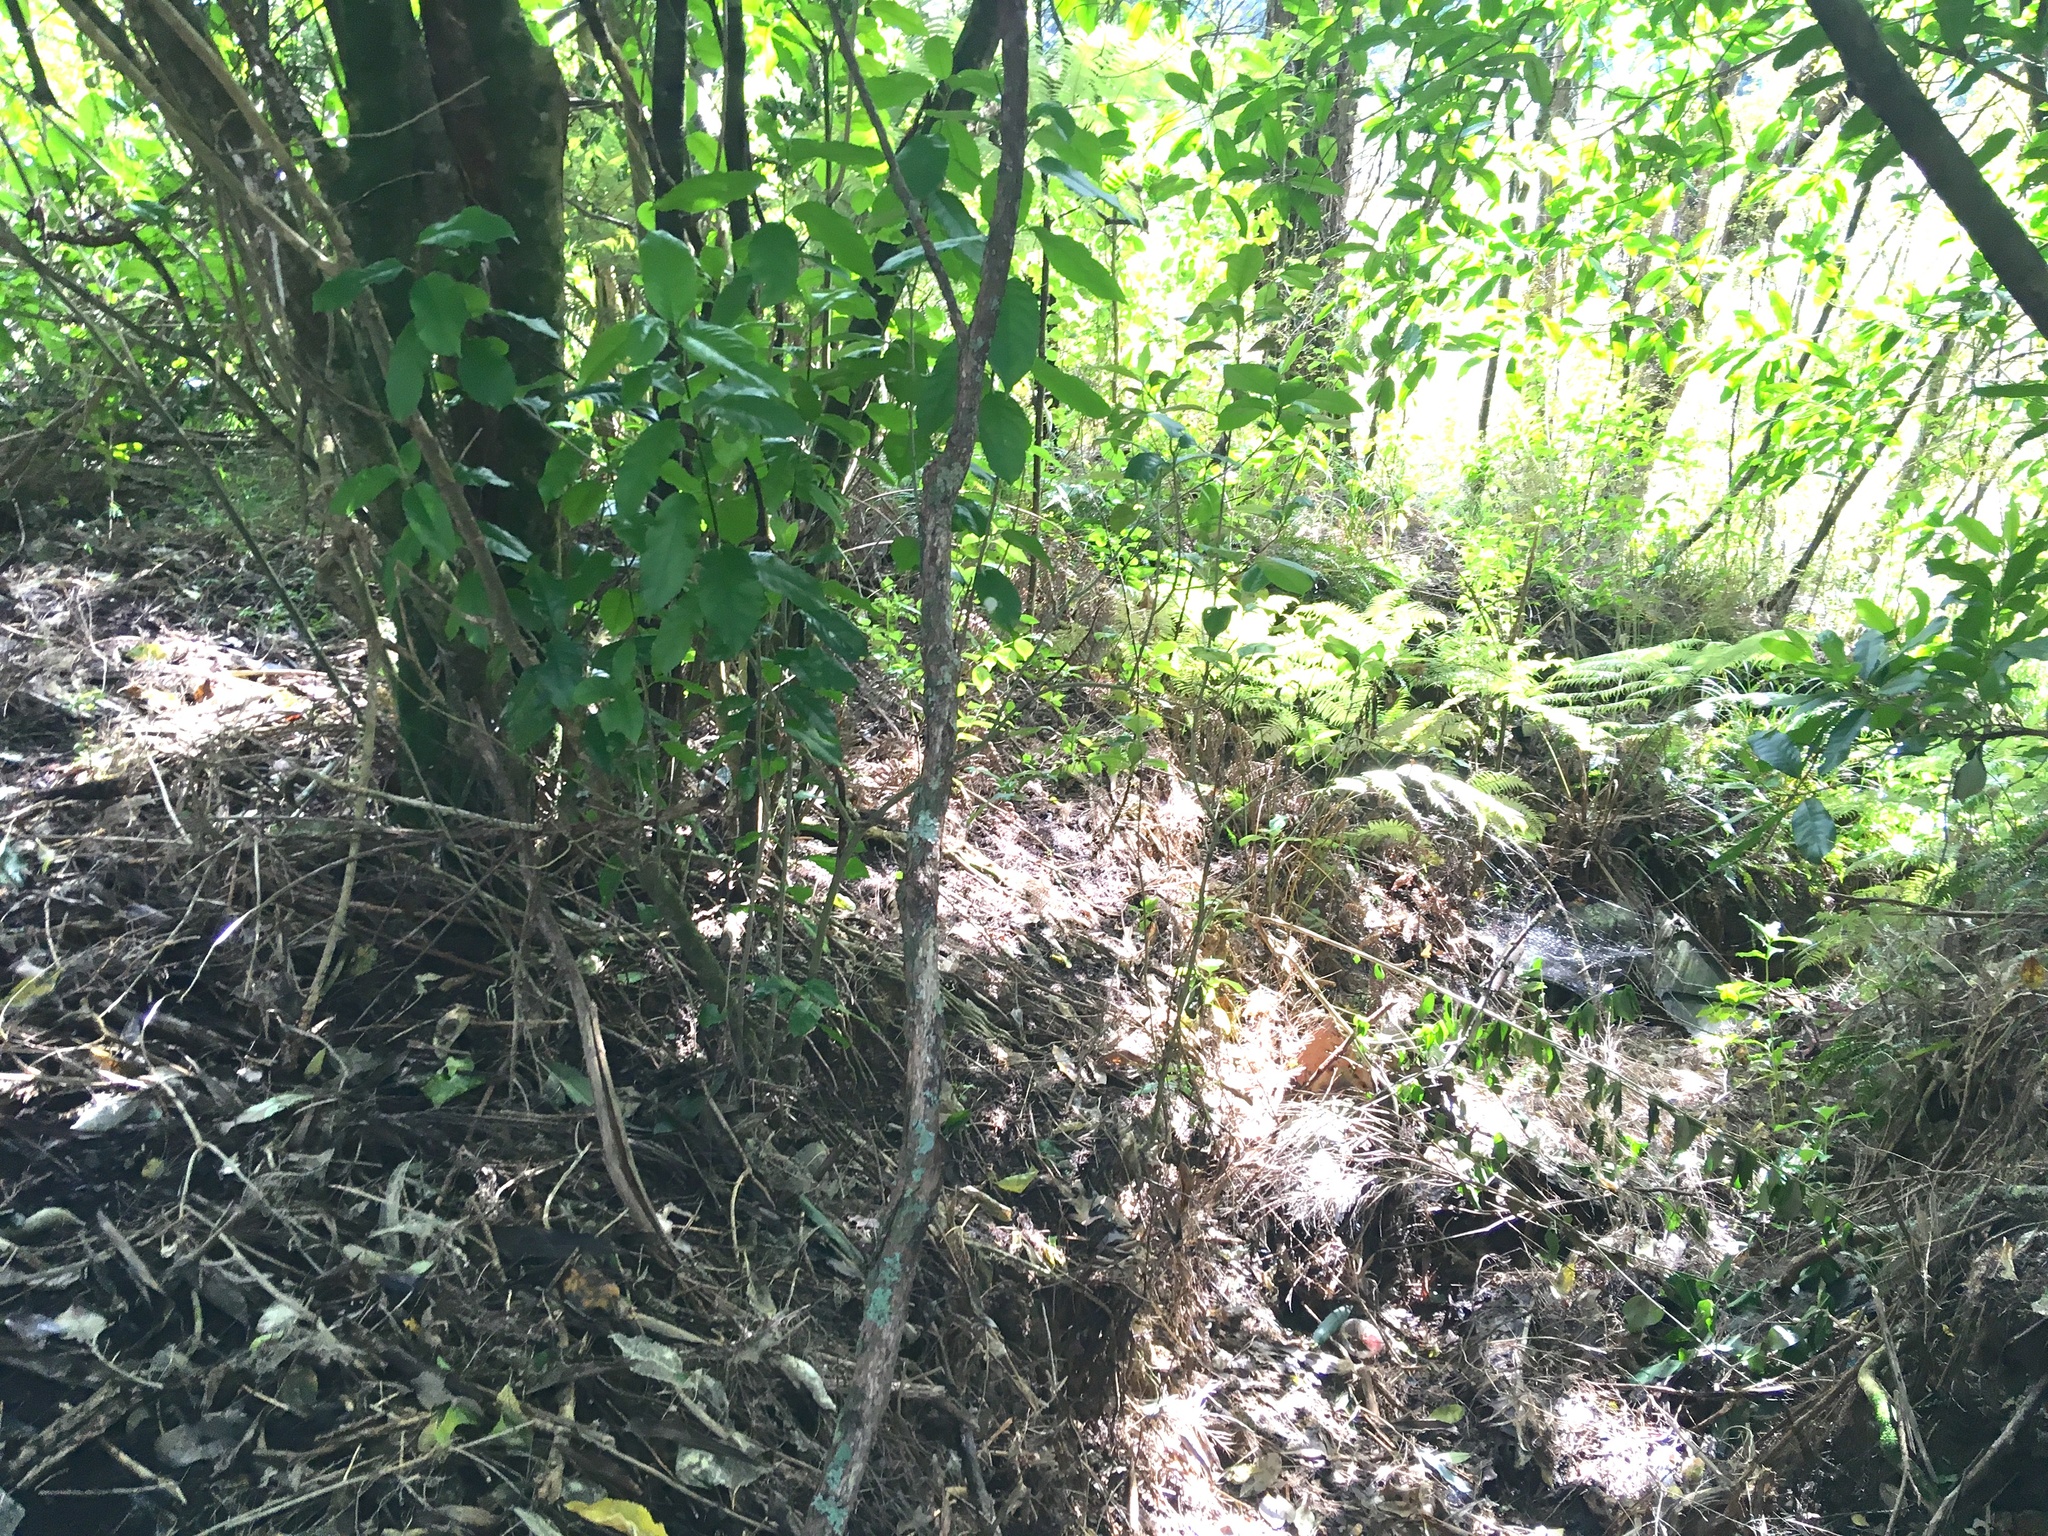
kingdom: Plantae
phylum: Tracheophyta
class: Magnoliopsida
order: Malpighiales
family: Violaceae
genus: Melicytus
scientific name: Melicytus ramiflorus
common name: Mahoe
